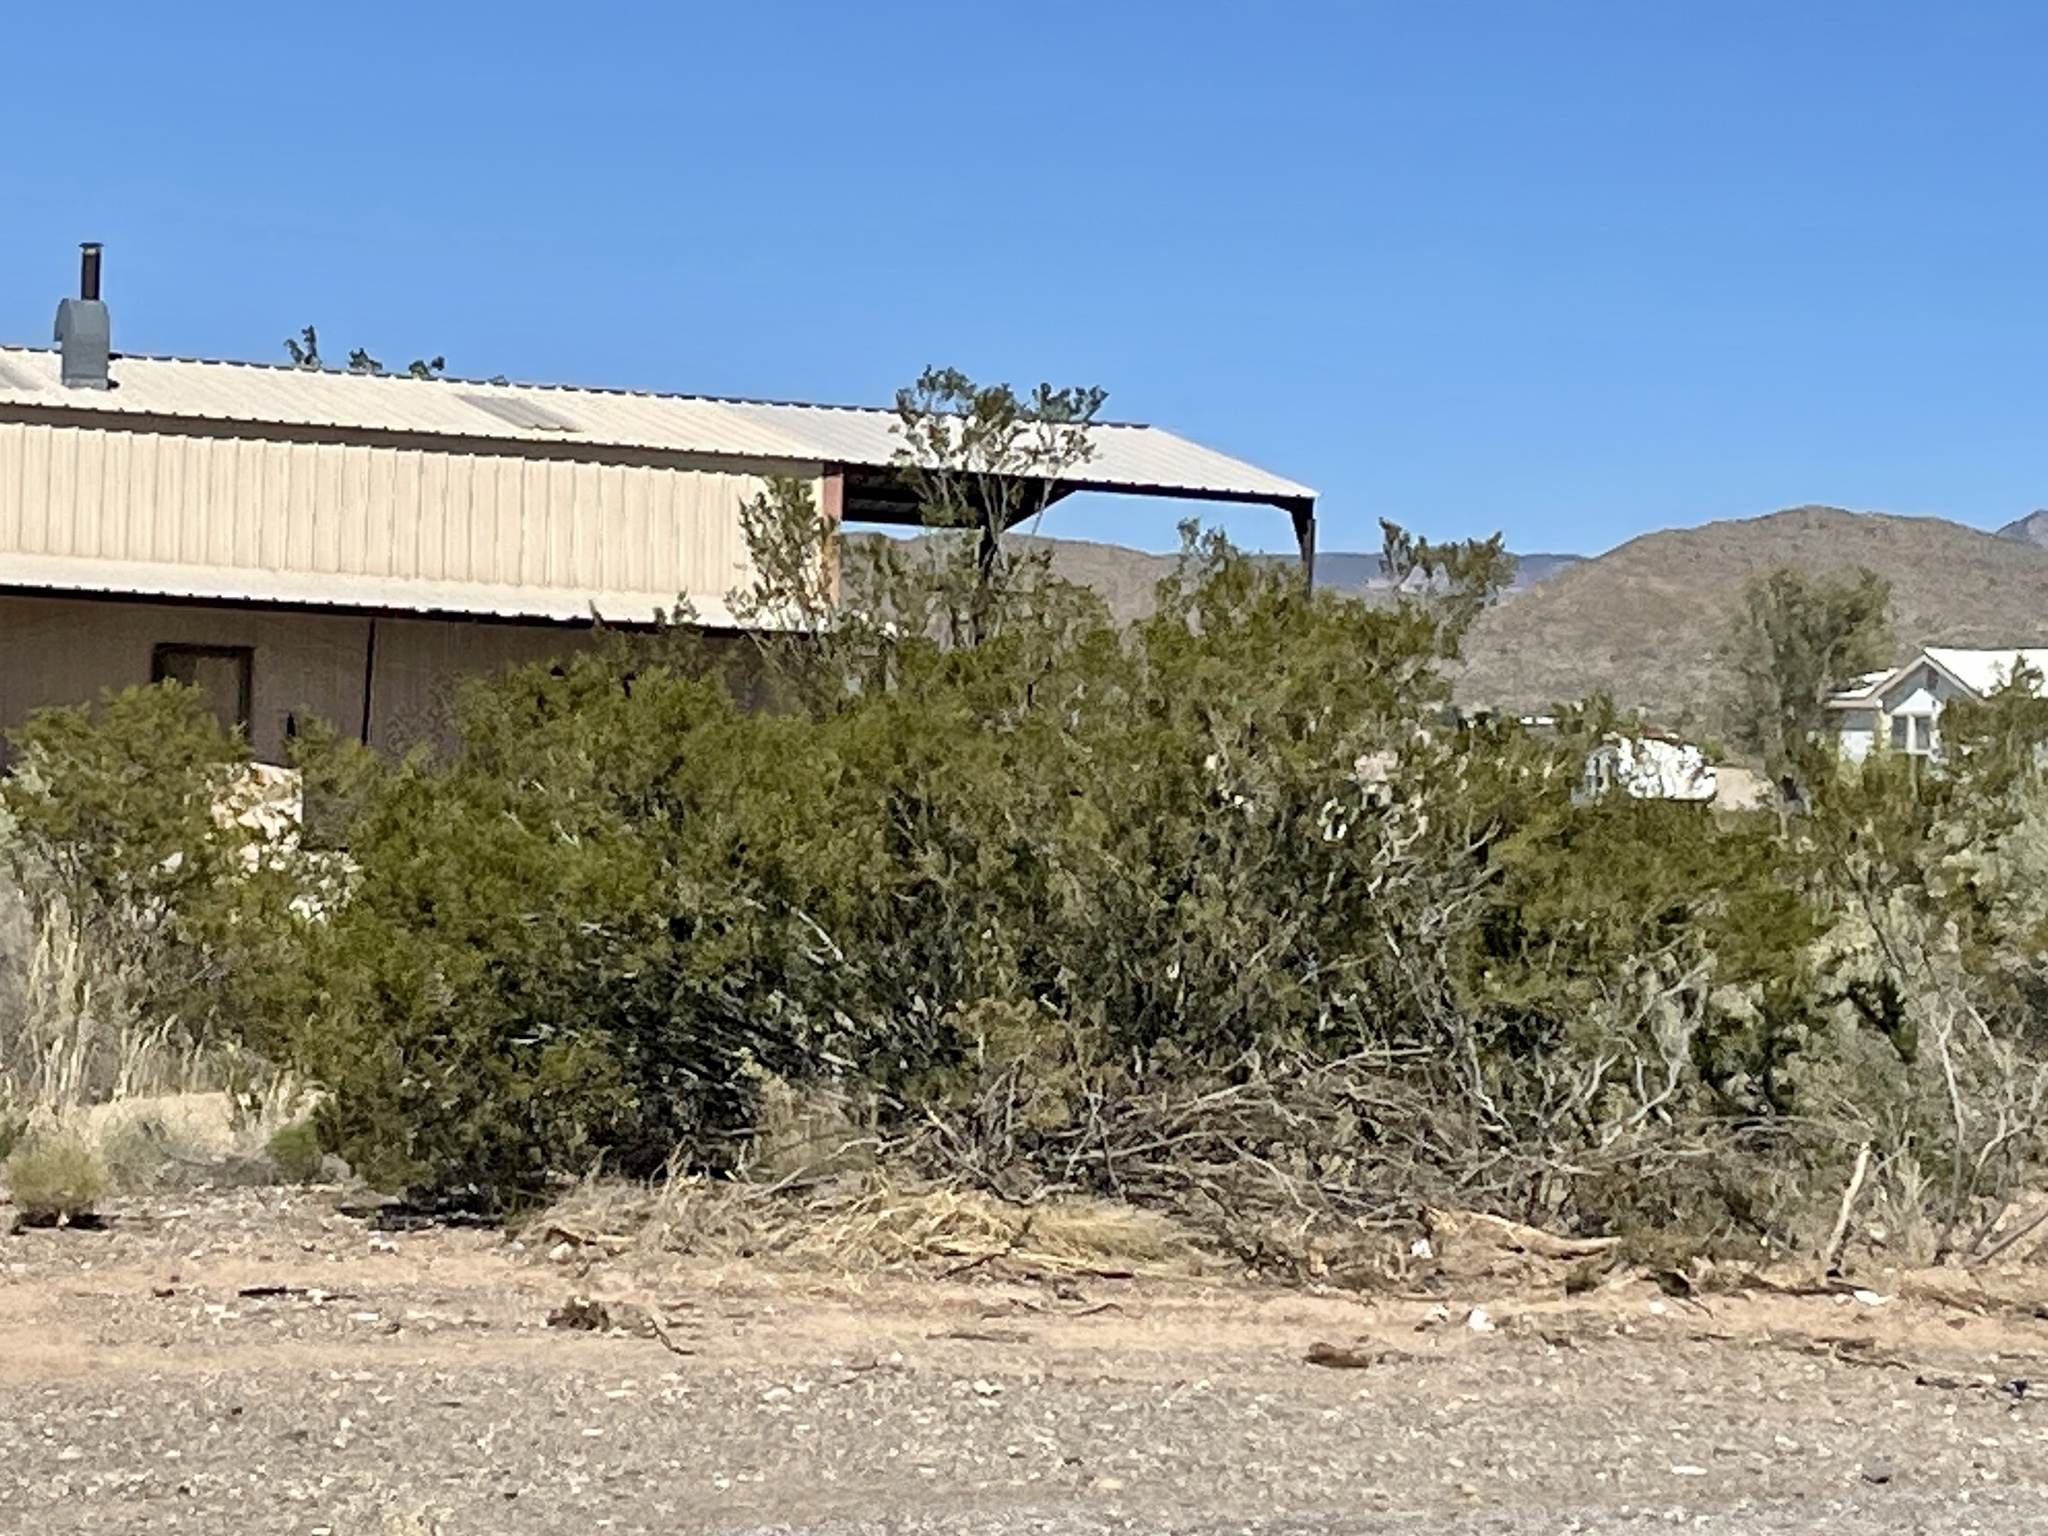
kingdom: Plantae
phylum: Tracheophyta
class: Magnoliopsida
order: Zygophyllales
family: Zygophyllaceae
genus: Larrea
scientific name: Larrea tridentata
